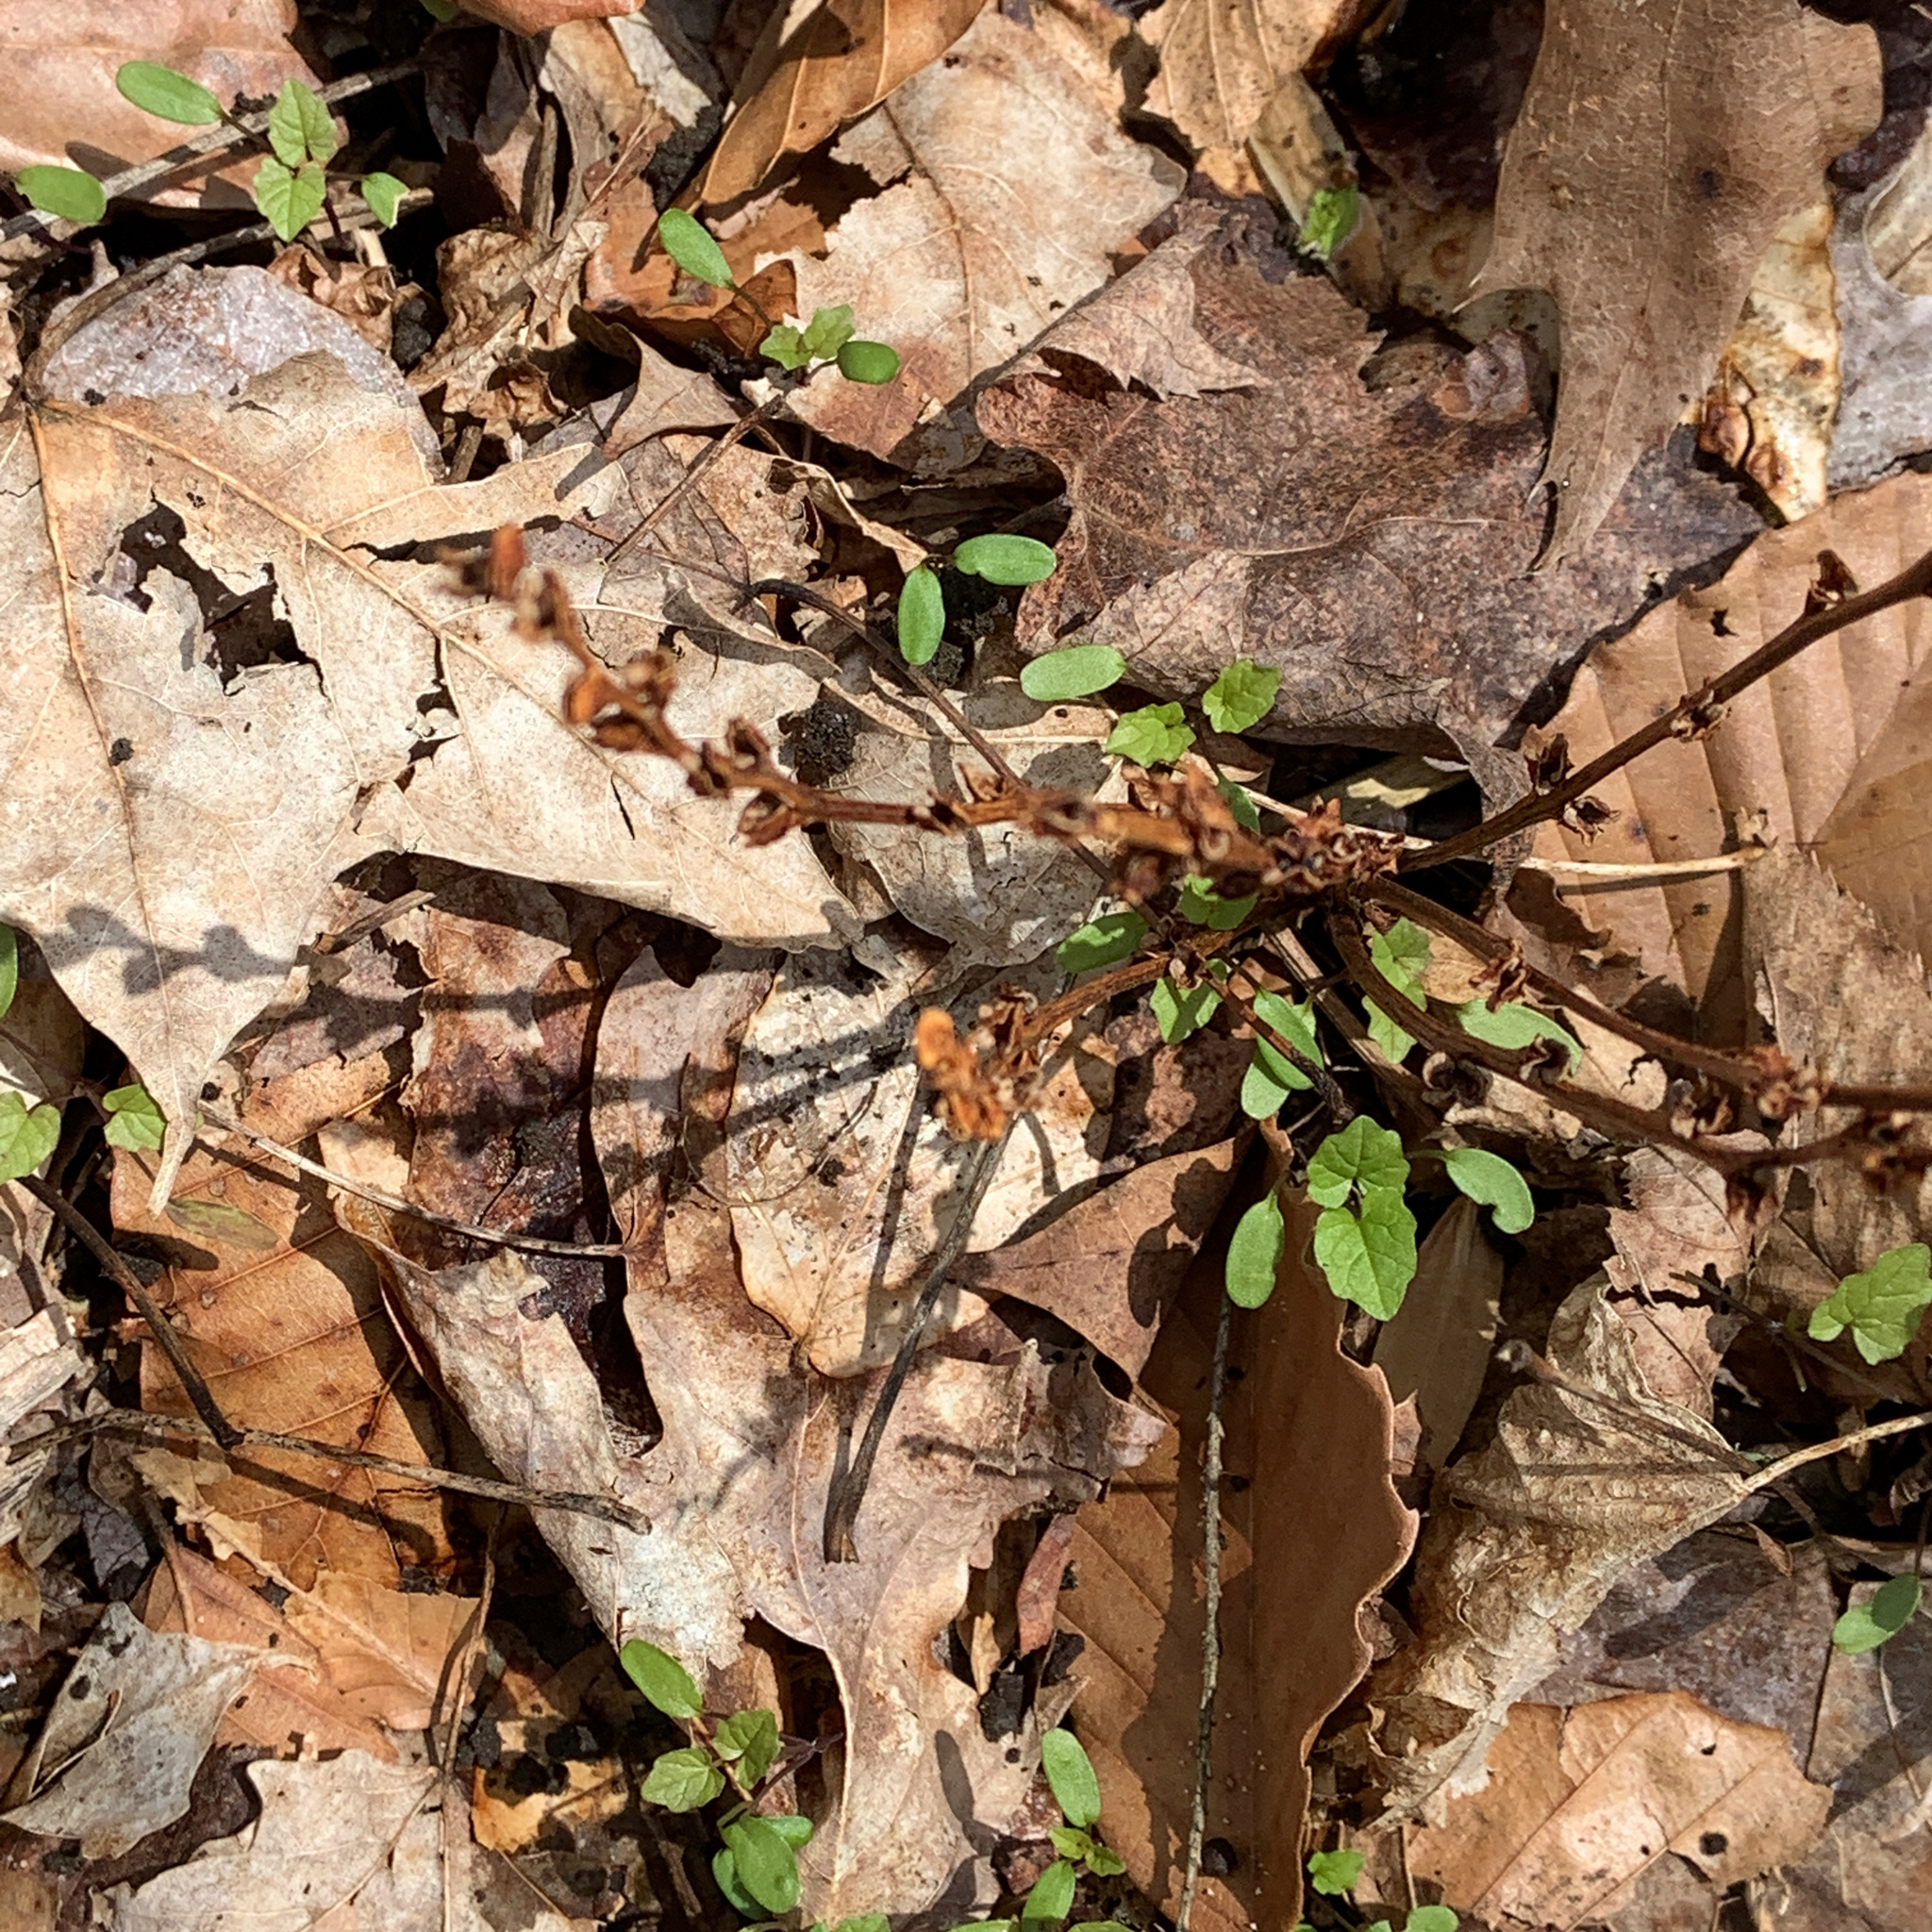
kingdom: Plantae
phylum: Tracheophyta
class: Magnoliopsida
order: Lamiales
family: Orobanchaceae
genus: Epifagus
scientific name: Epifagus virginiana
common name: Beechdrops
